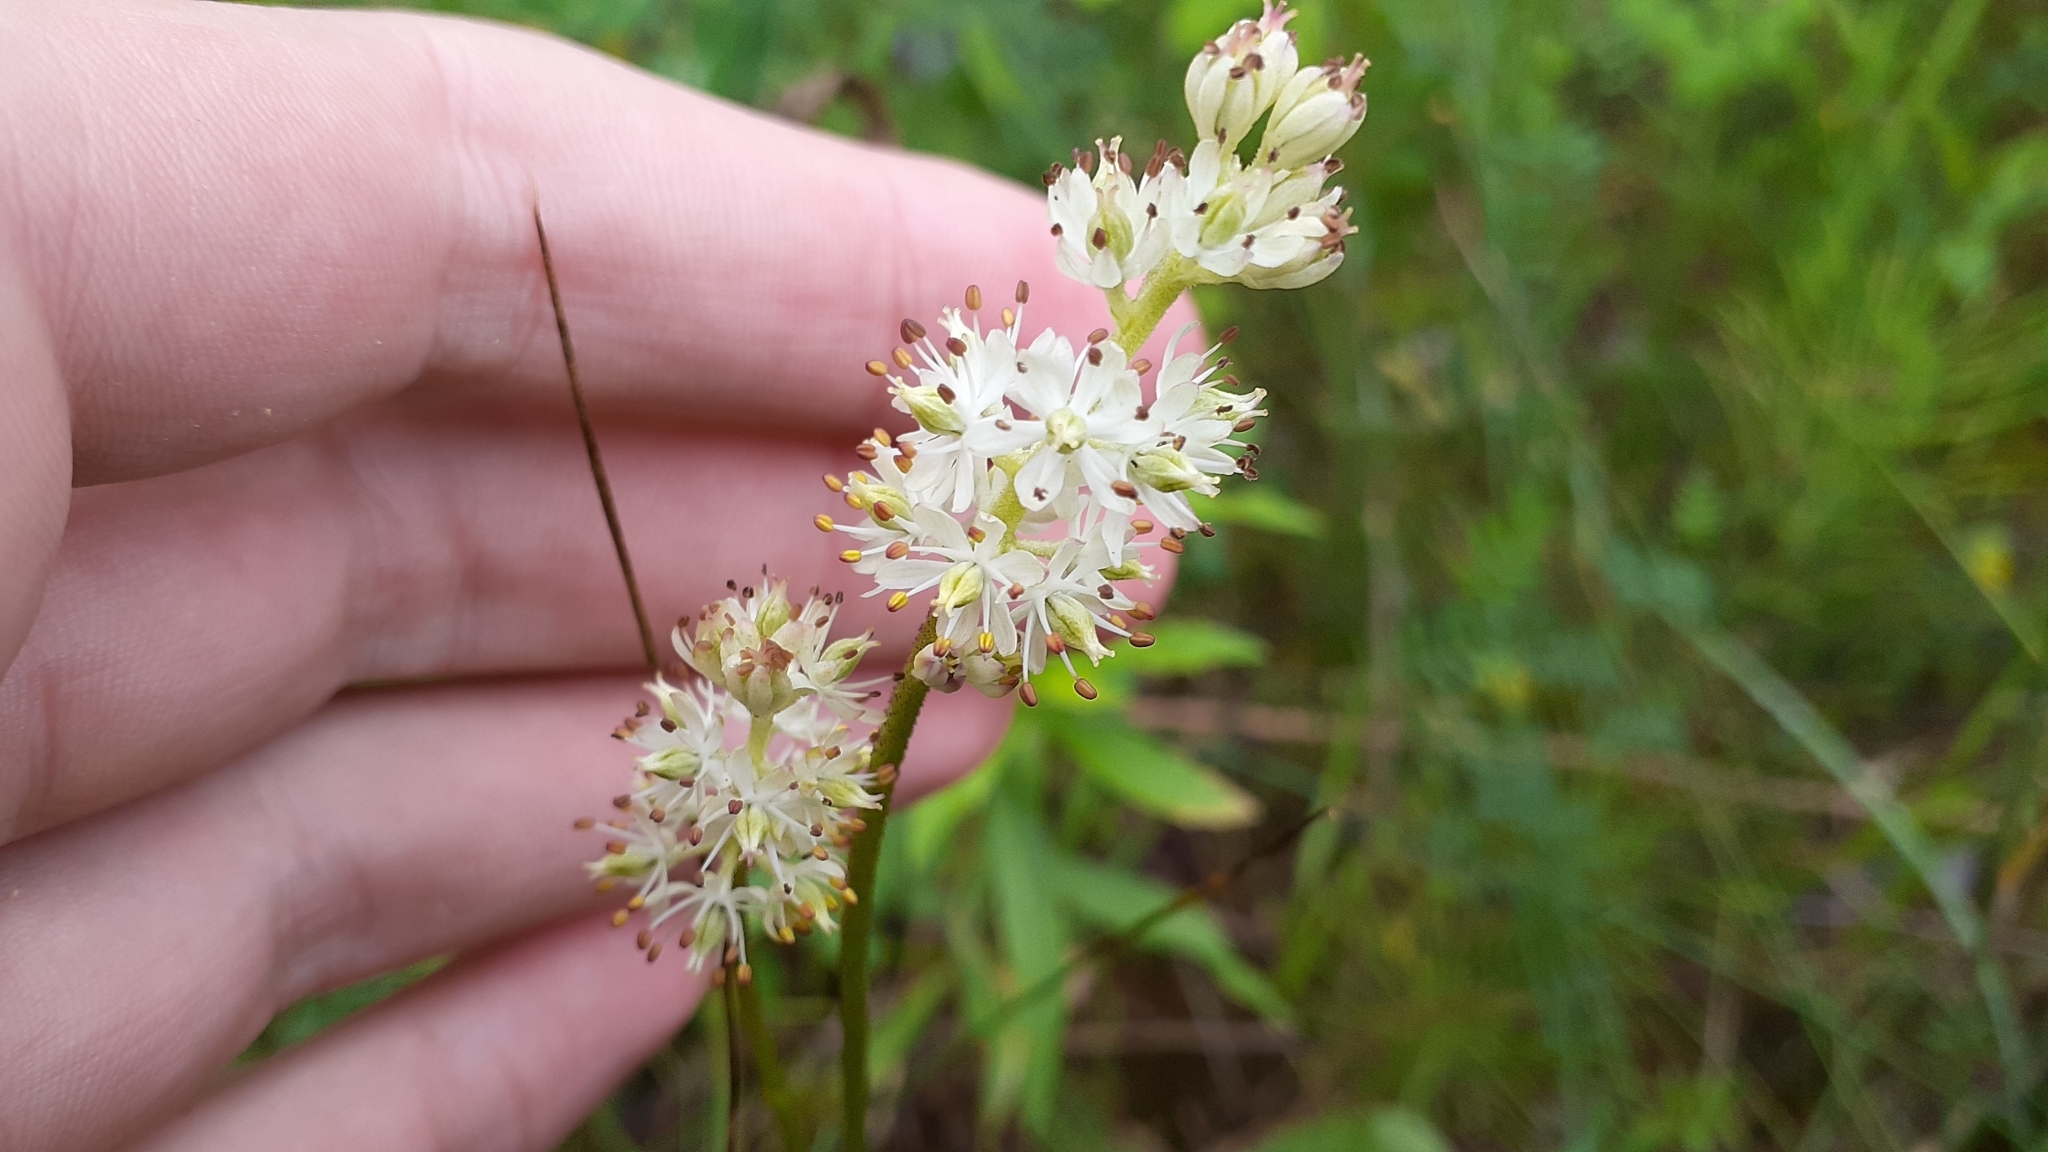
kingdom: Plantae
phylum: Tracheophyta
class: Liliopsida
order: Alismatales
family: Tofieldiaceae
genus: Triantha
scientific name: Triantha glutinosa
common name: Glutinous tofieldia
